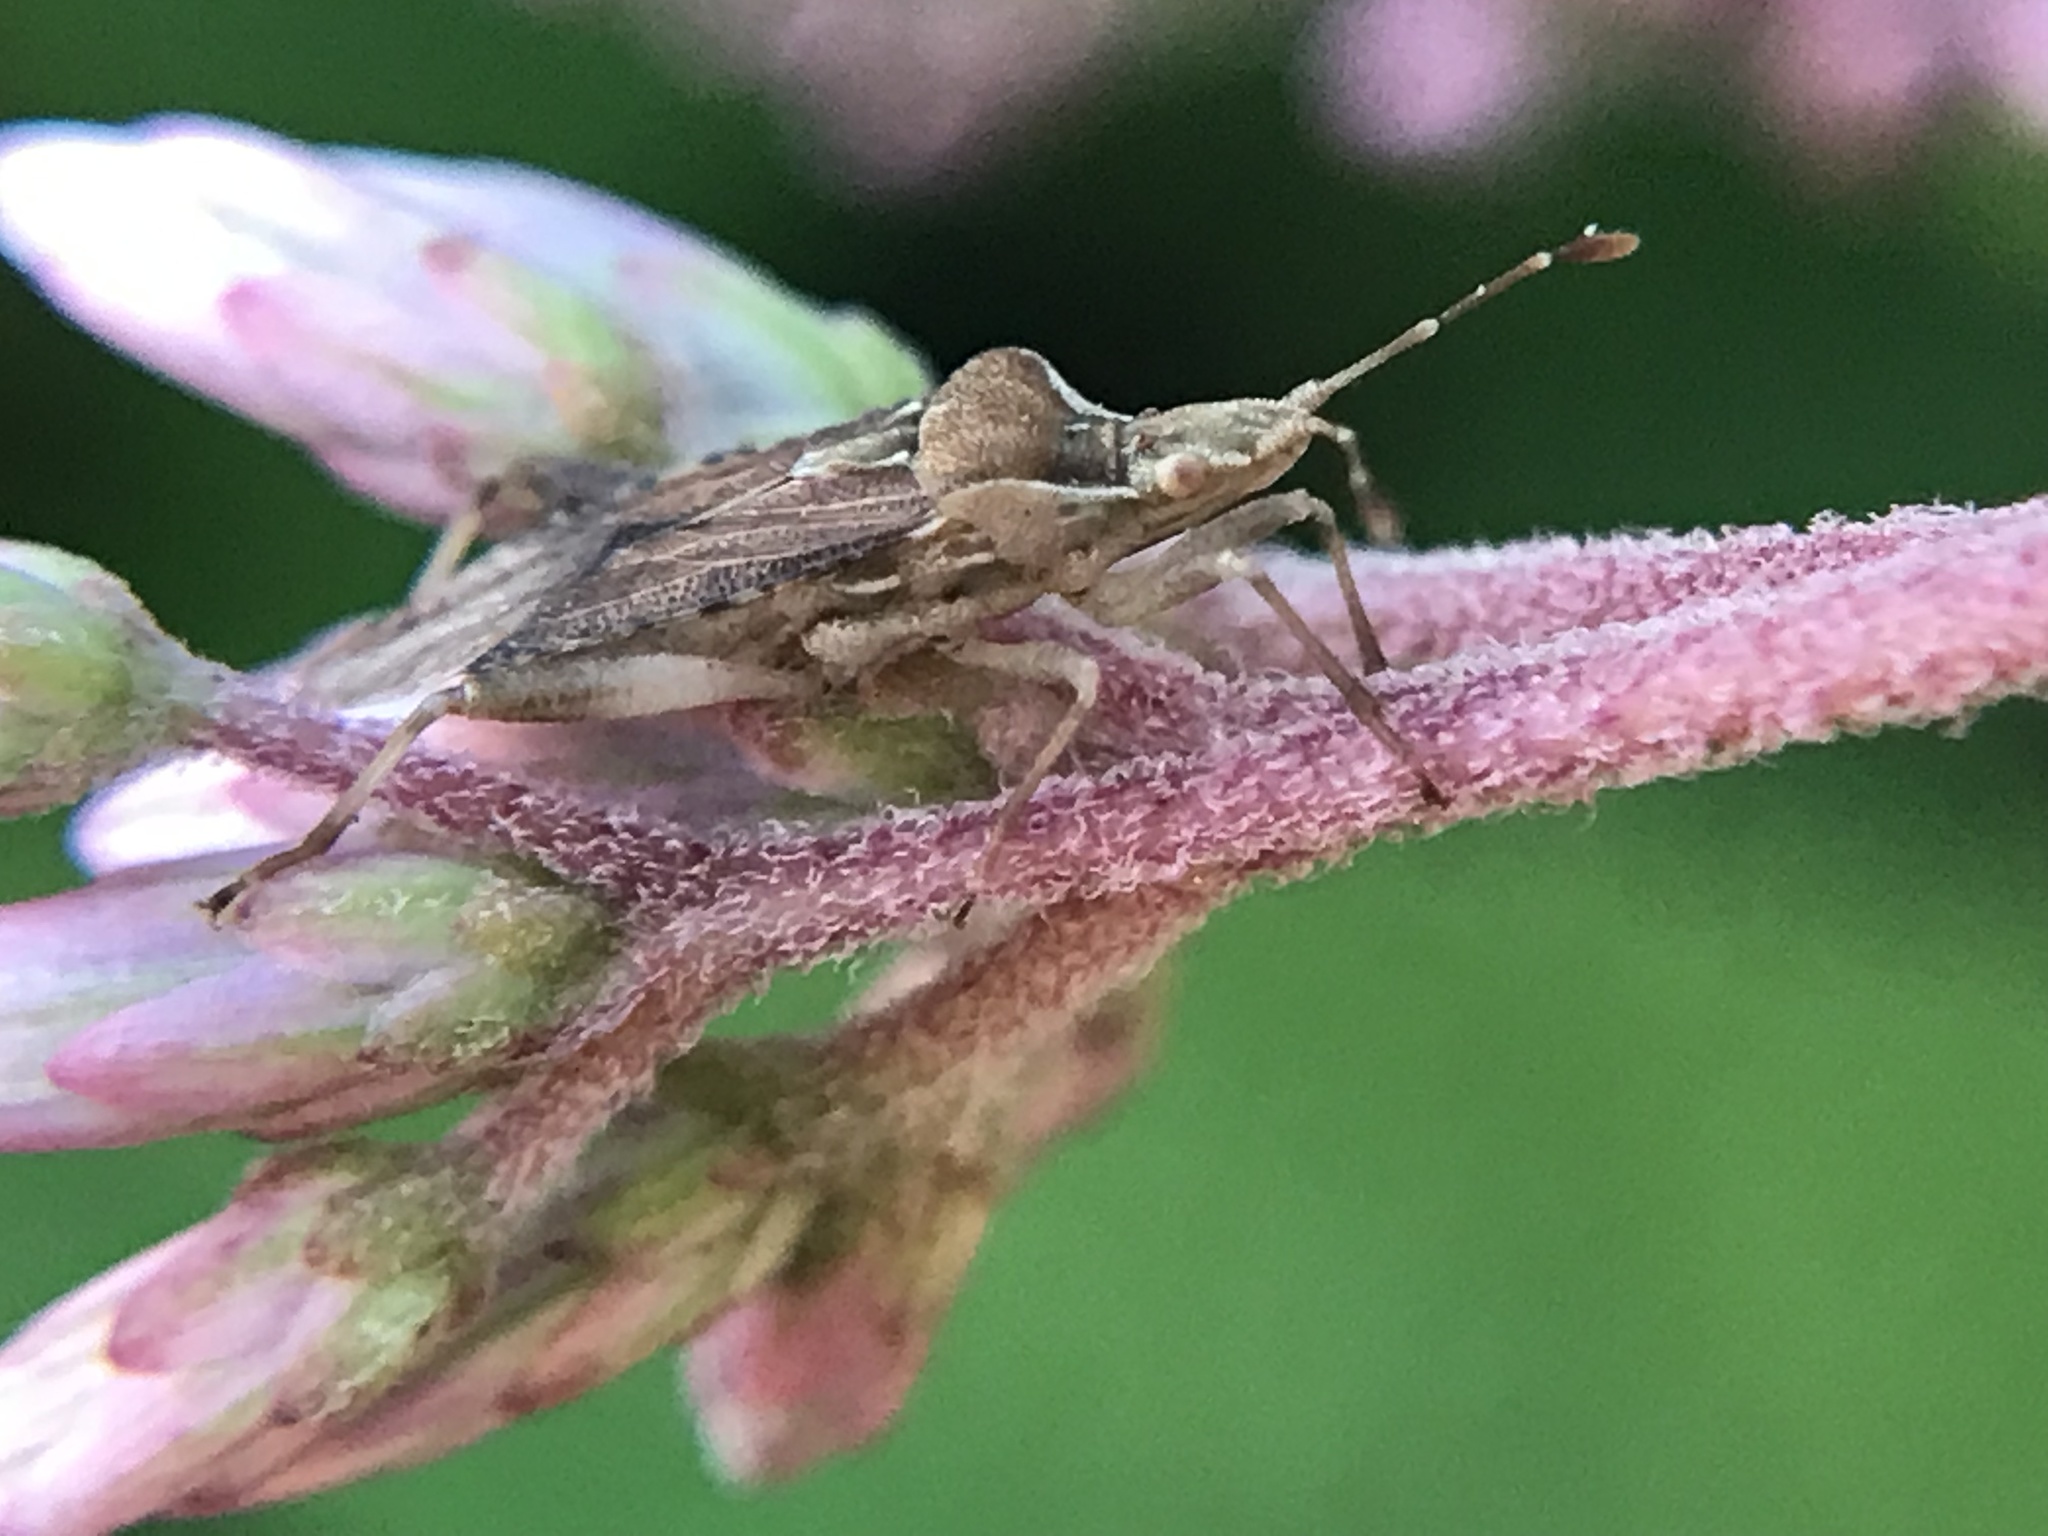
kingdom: Animalia
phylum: Arthropoda
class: Insecta
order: Hemiptera
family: Rhopalidae
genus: Harmostes
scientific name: Harmostes fraterculus
